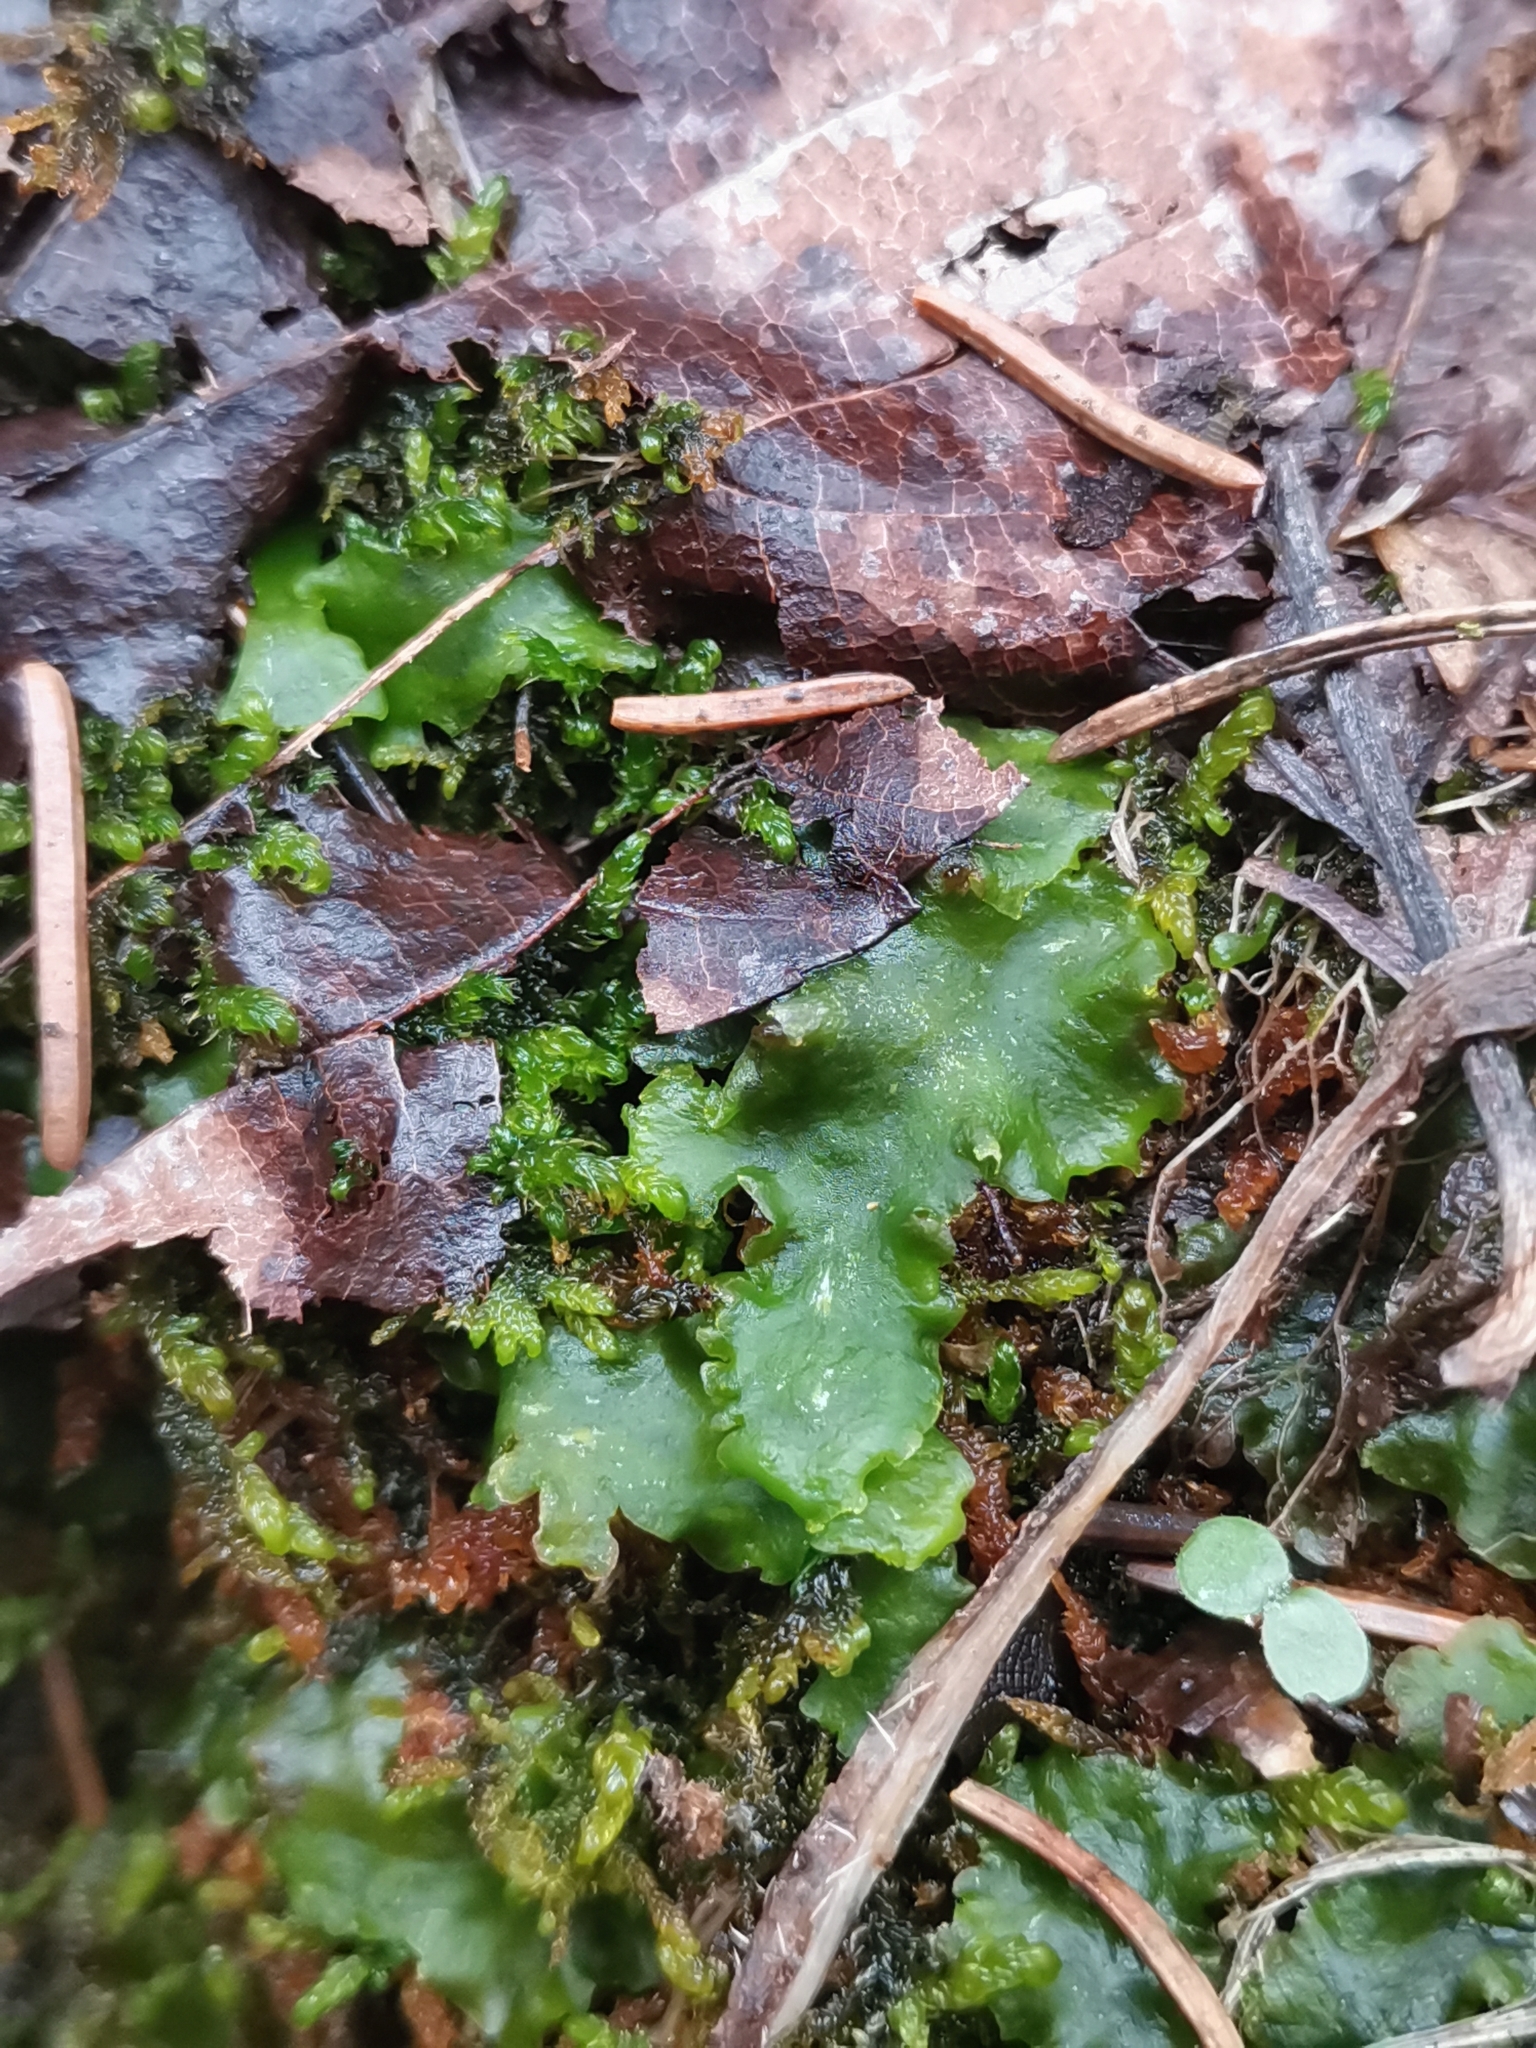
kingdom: Plantae
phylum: Marchantiophyta
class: Jungermanniopsida
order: Metzgeriales
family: Aneuraceae
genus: Aneura
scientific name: Aneura pinguis
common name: Common greasewort
